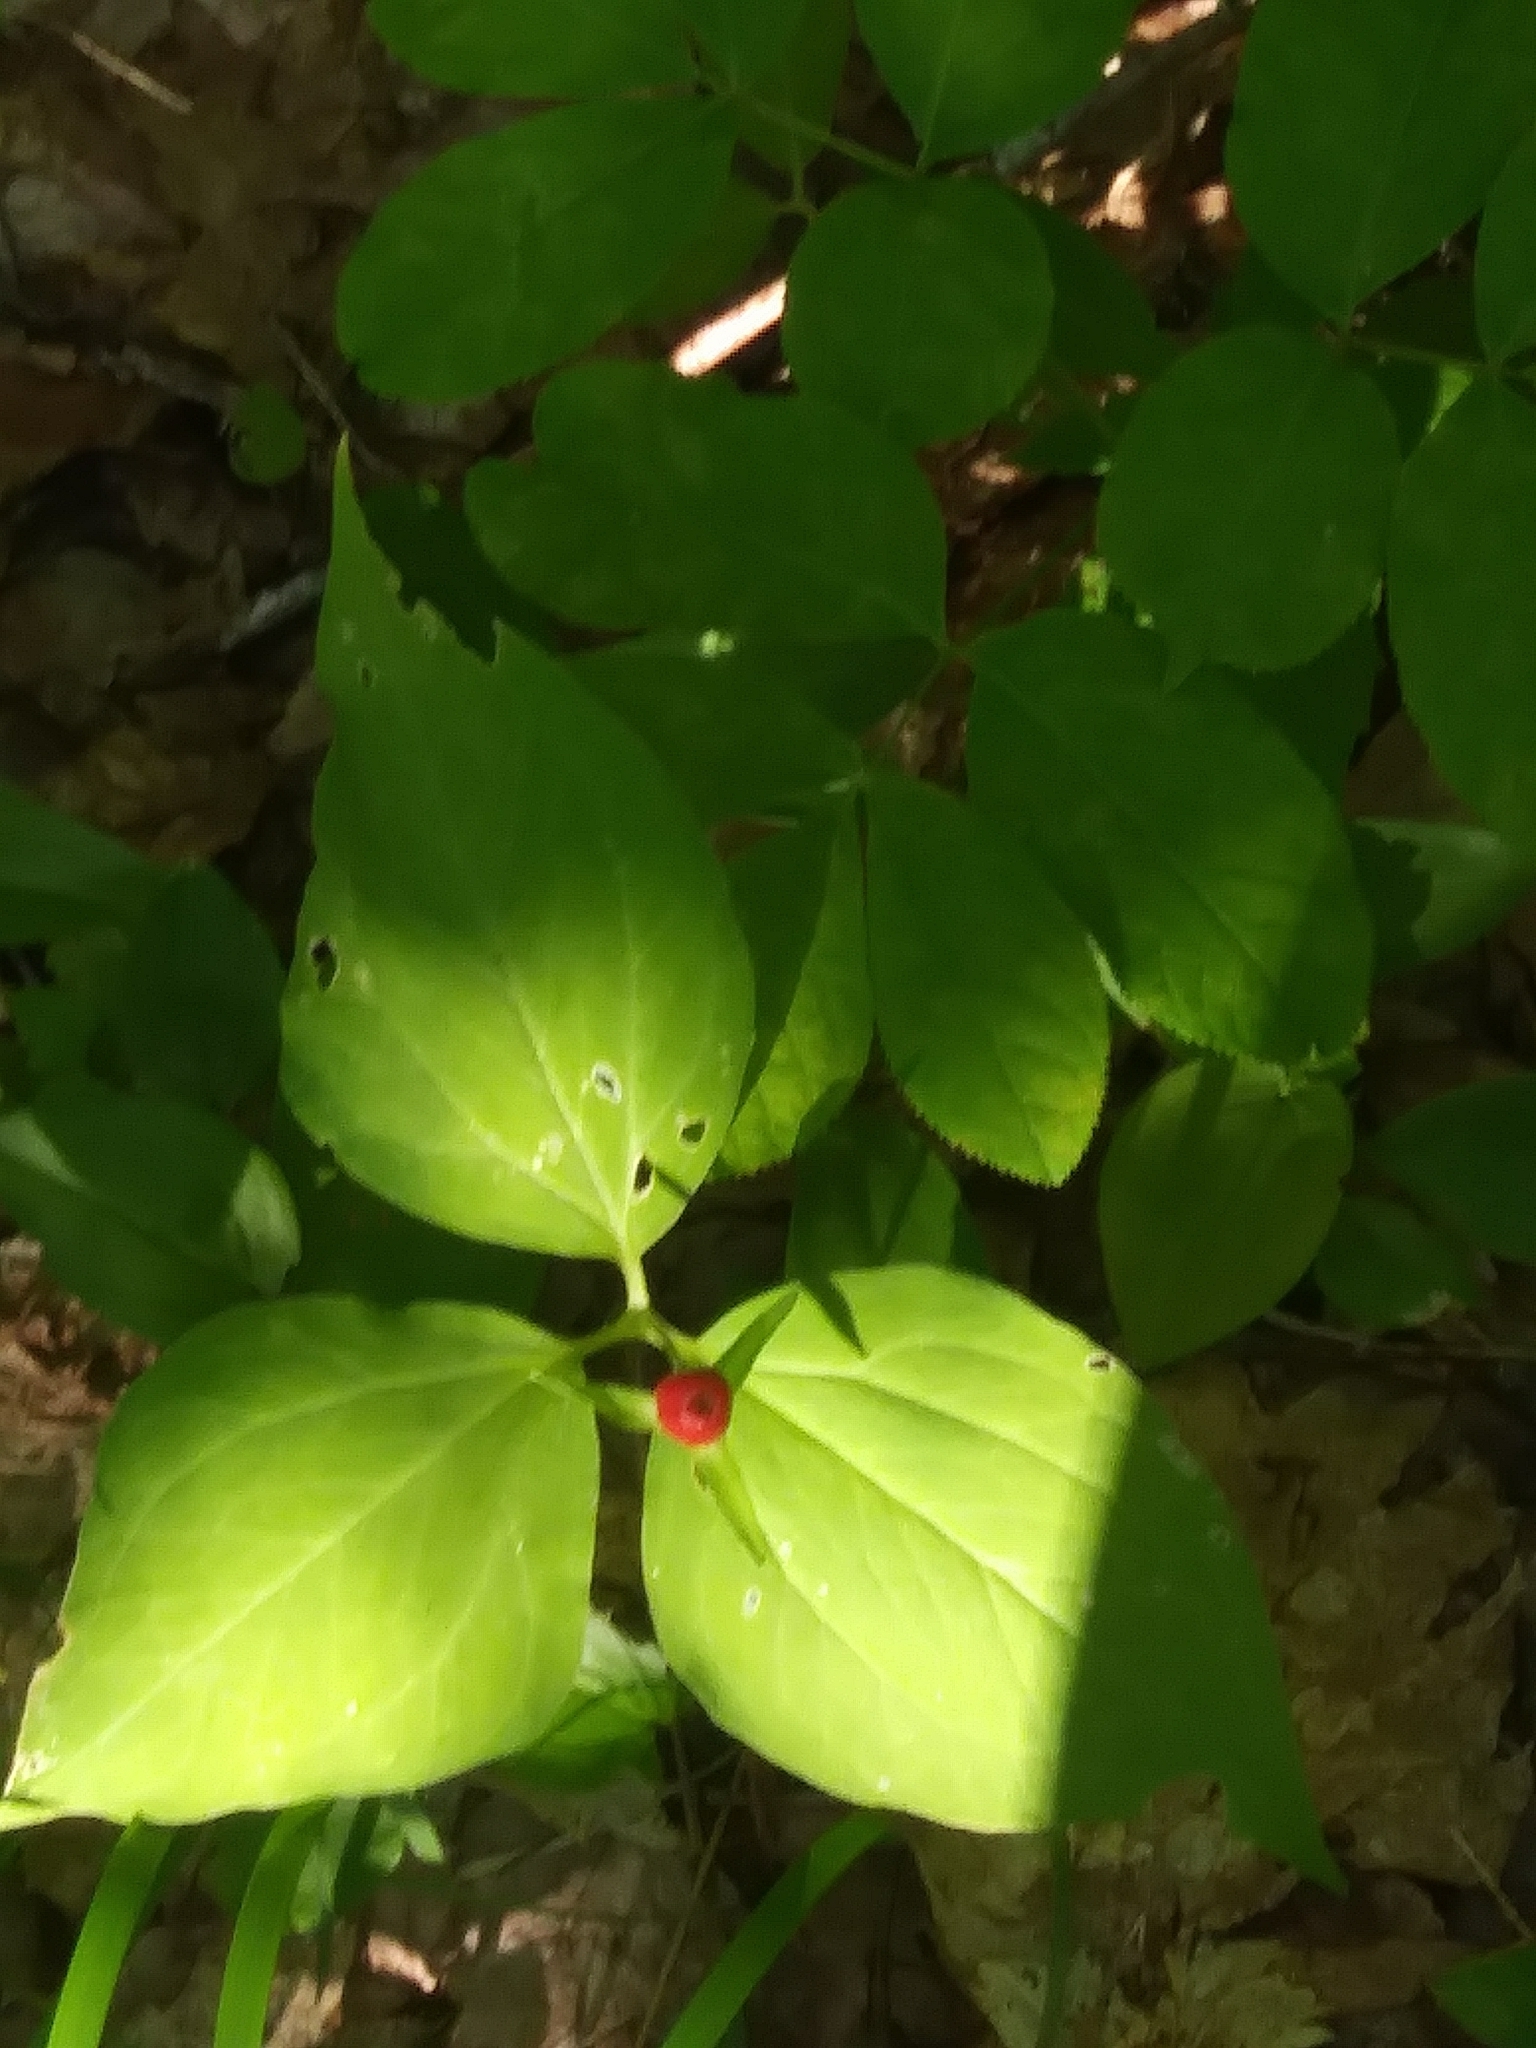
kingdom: Plantae
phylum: Tracheophyta
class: Liliopsida
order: Liliales
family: Melanthiaceae
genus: Trillium
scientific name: Trillium undulatum
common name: Paint trillium
